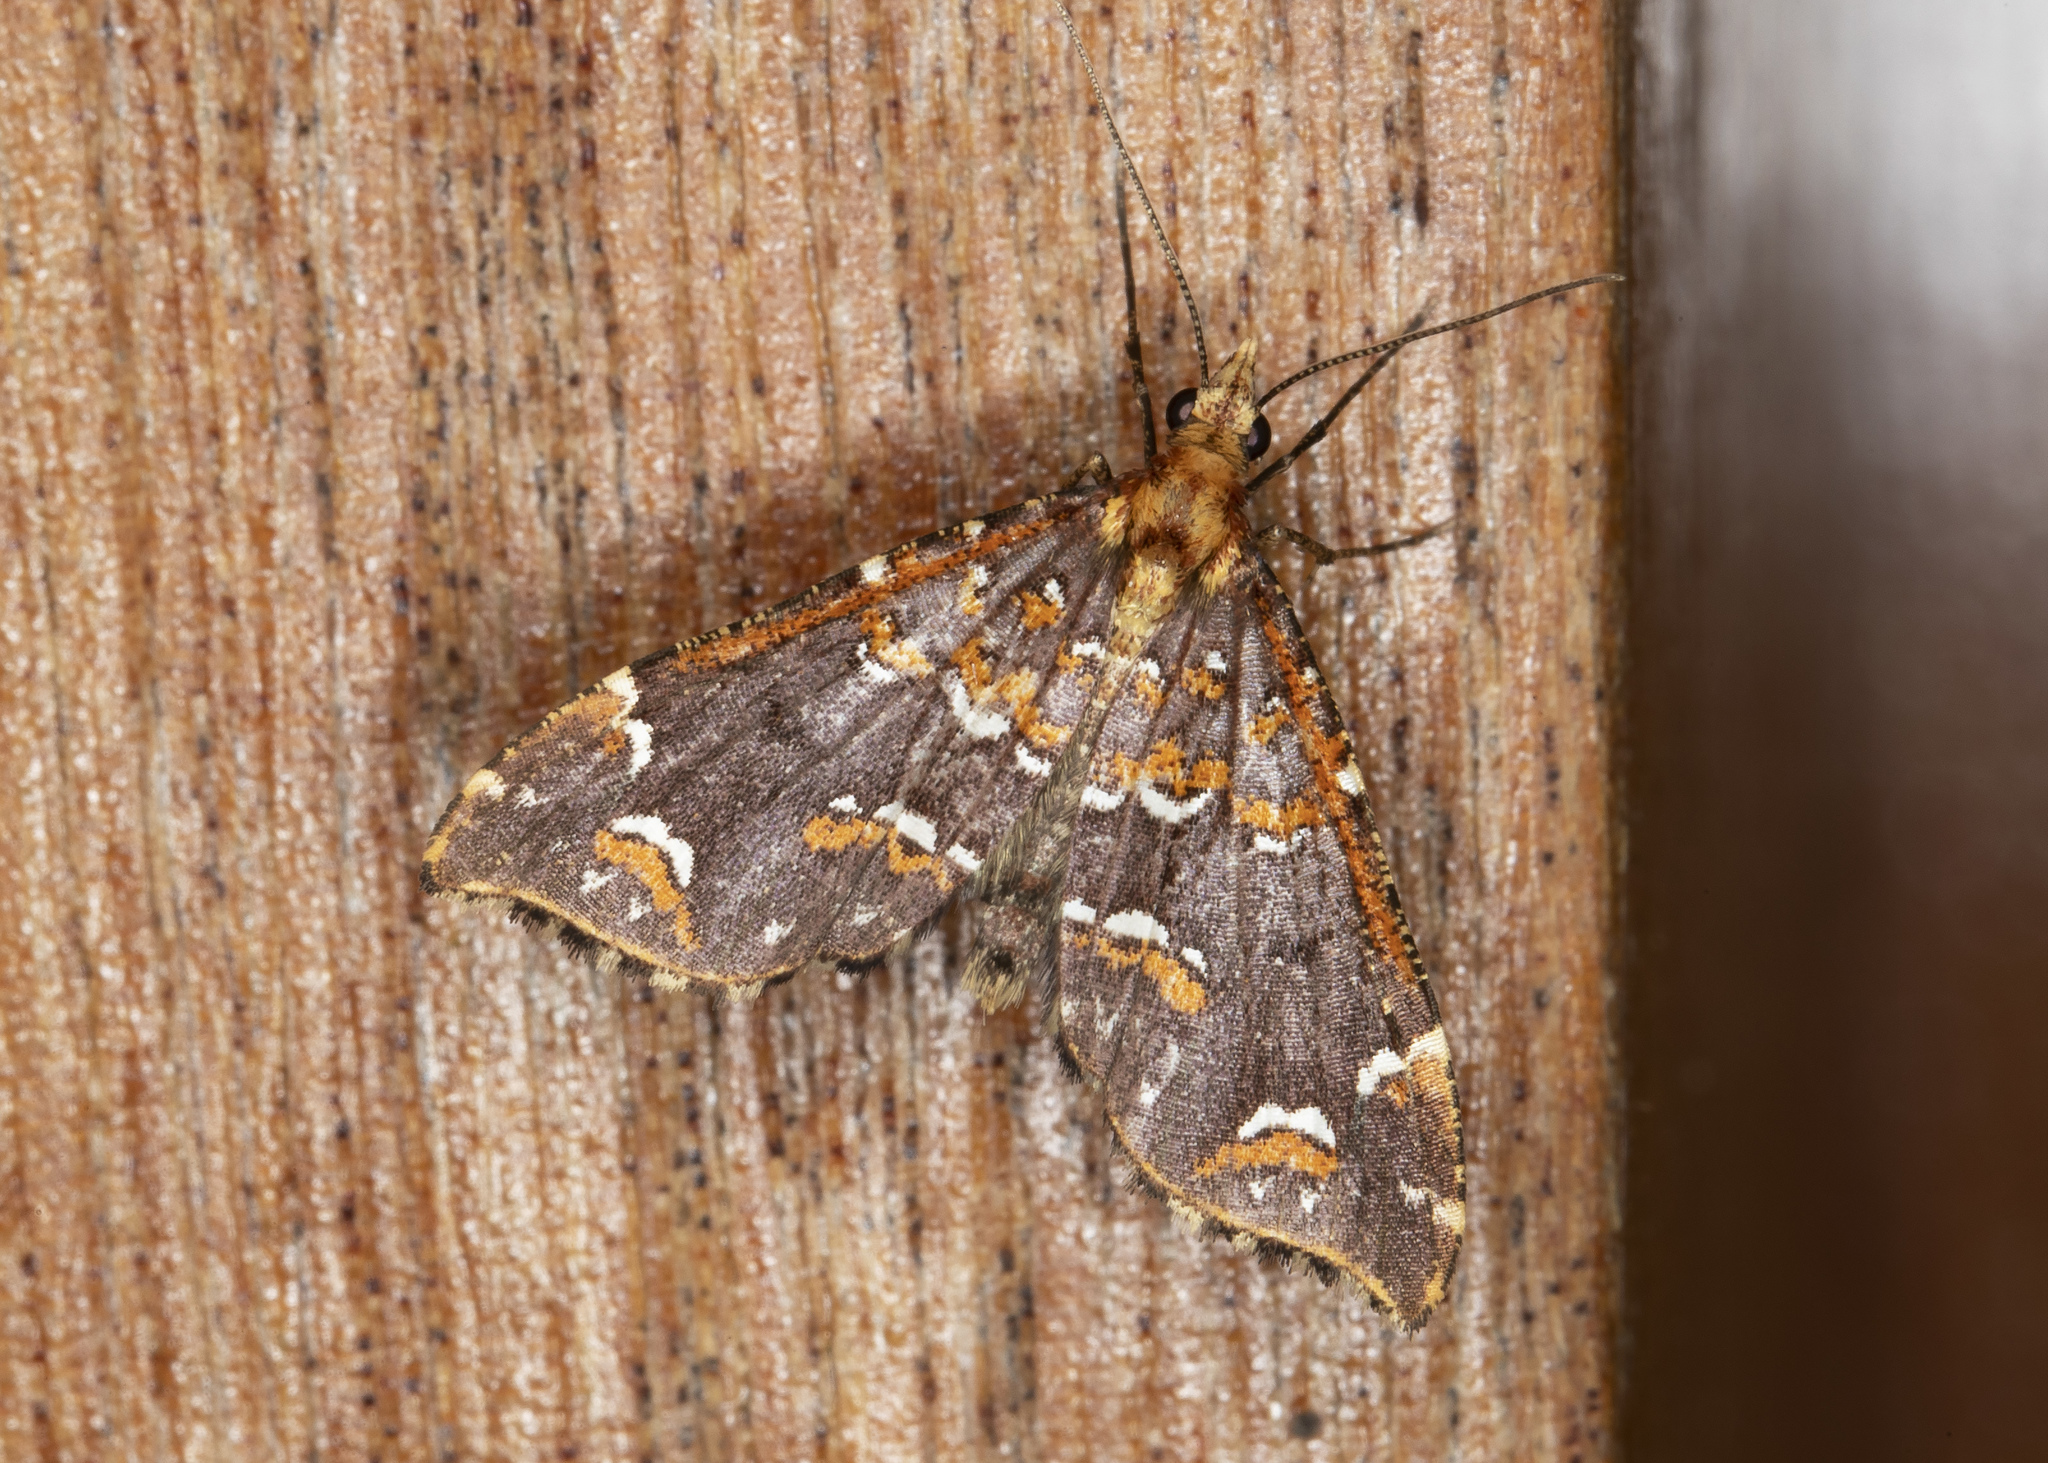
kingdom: Animalia
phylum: Arthropoda
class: Insecta
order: Lepidoptera
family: Geometridae
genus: Psaliodes
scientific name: Psaliodes tripita
